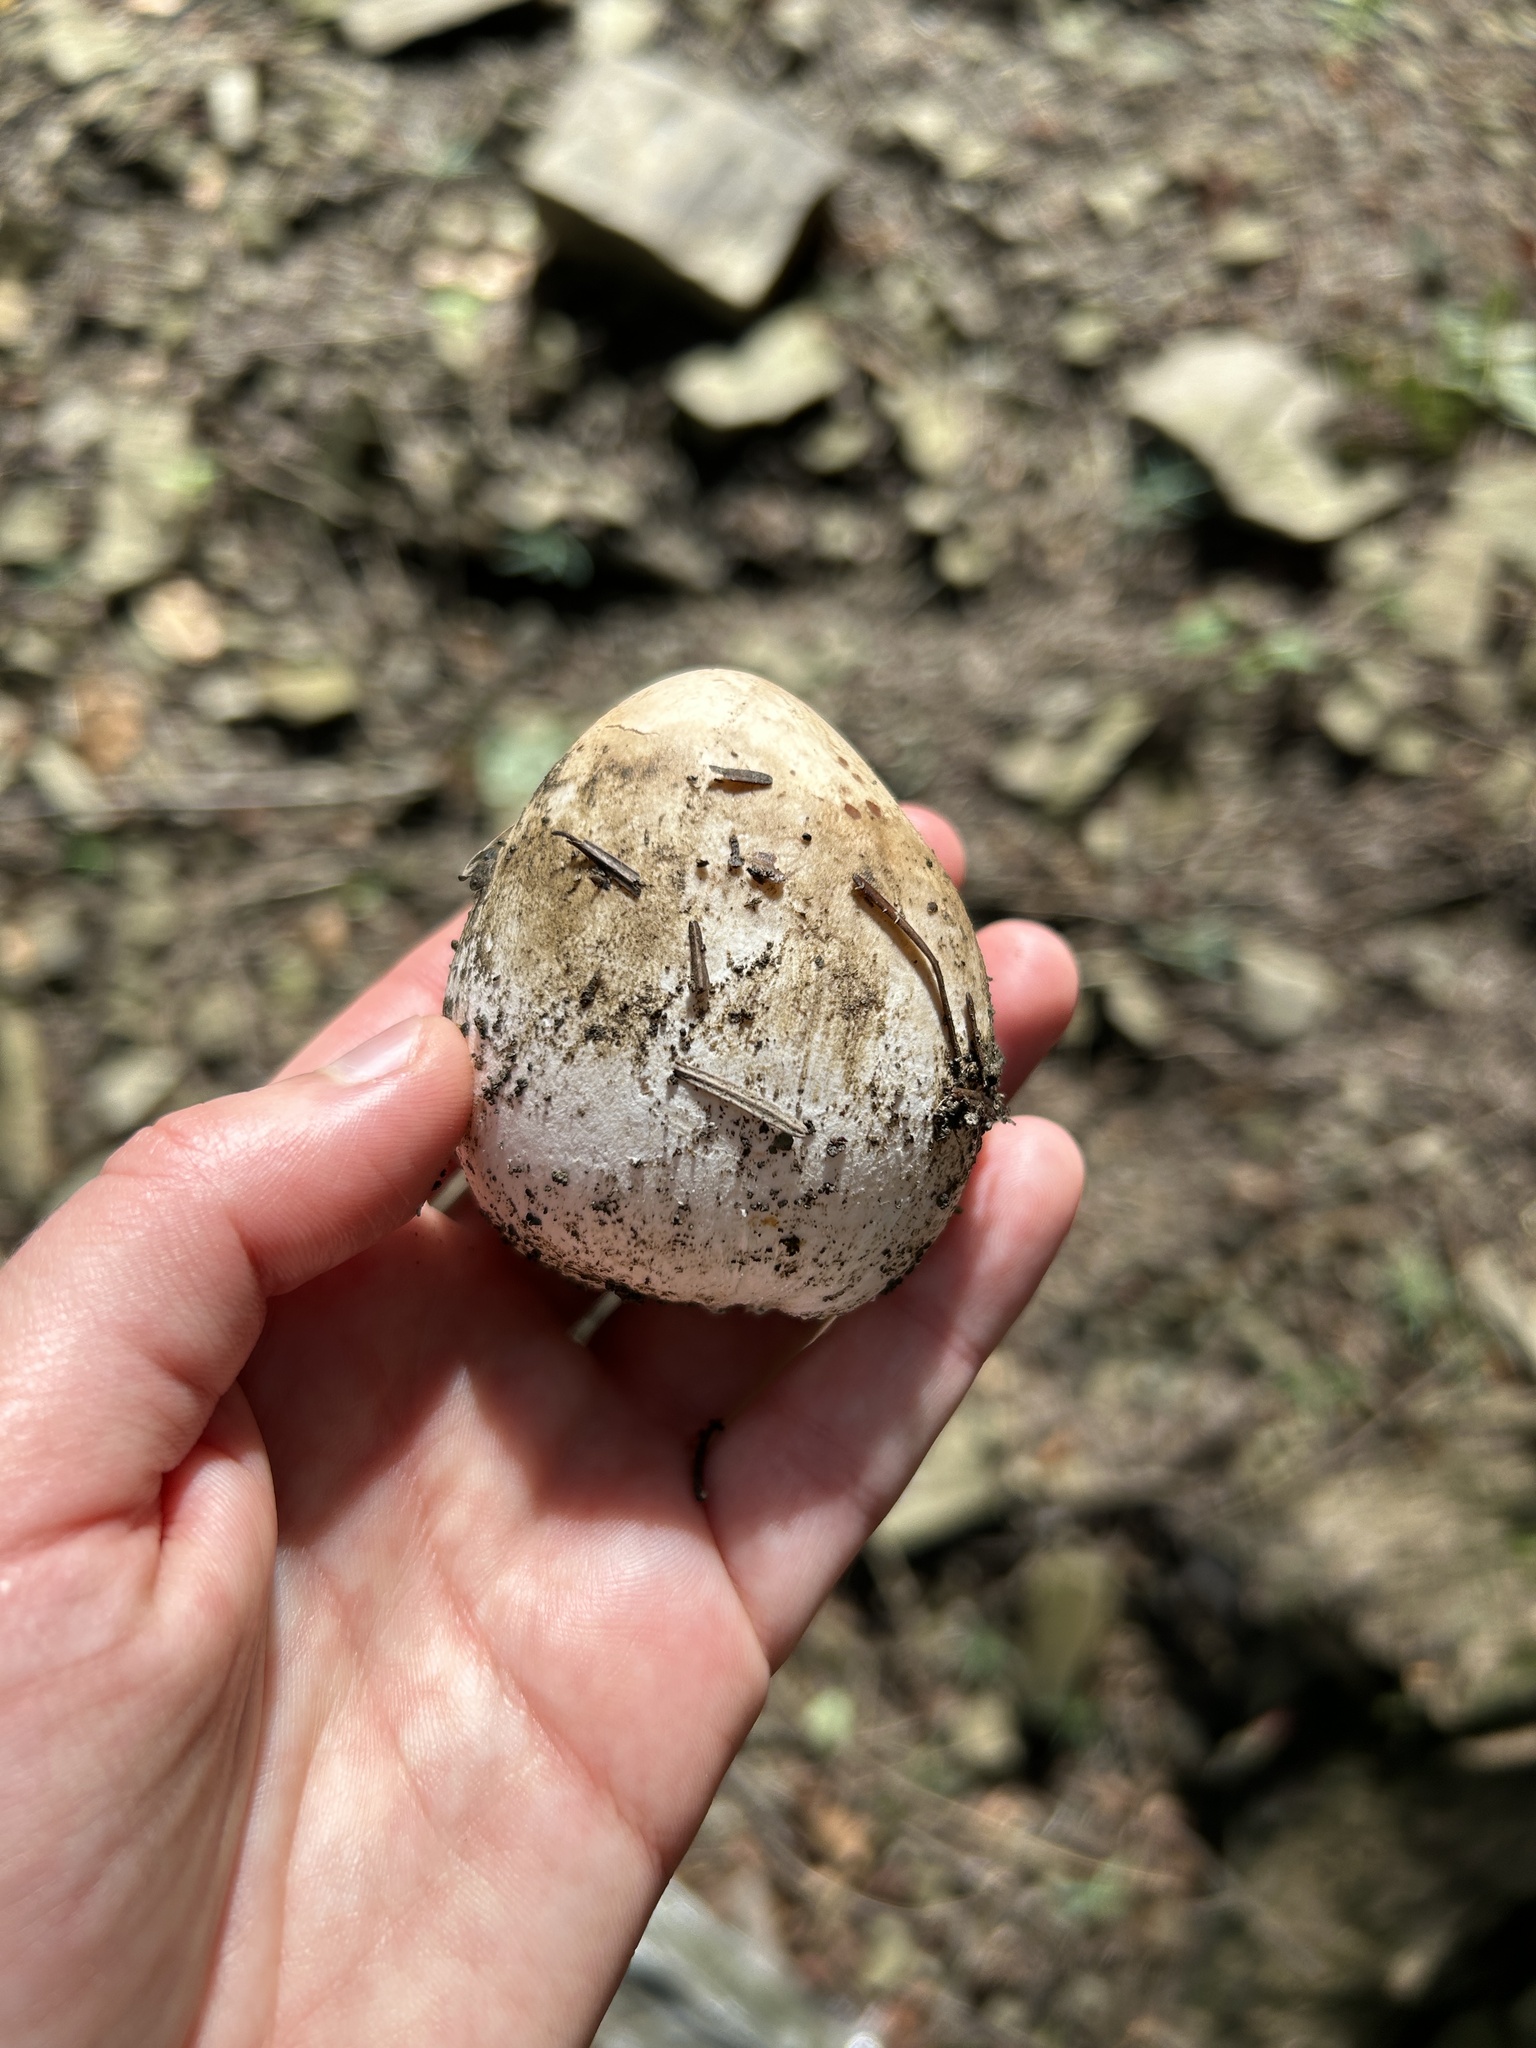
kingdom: Fungi
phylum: Basidiomycota
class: Agaricomycetes
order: Phallales
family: Phallaceae
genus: Phallus
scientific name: Phallus impudicus
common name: Common stinkhorn
